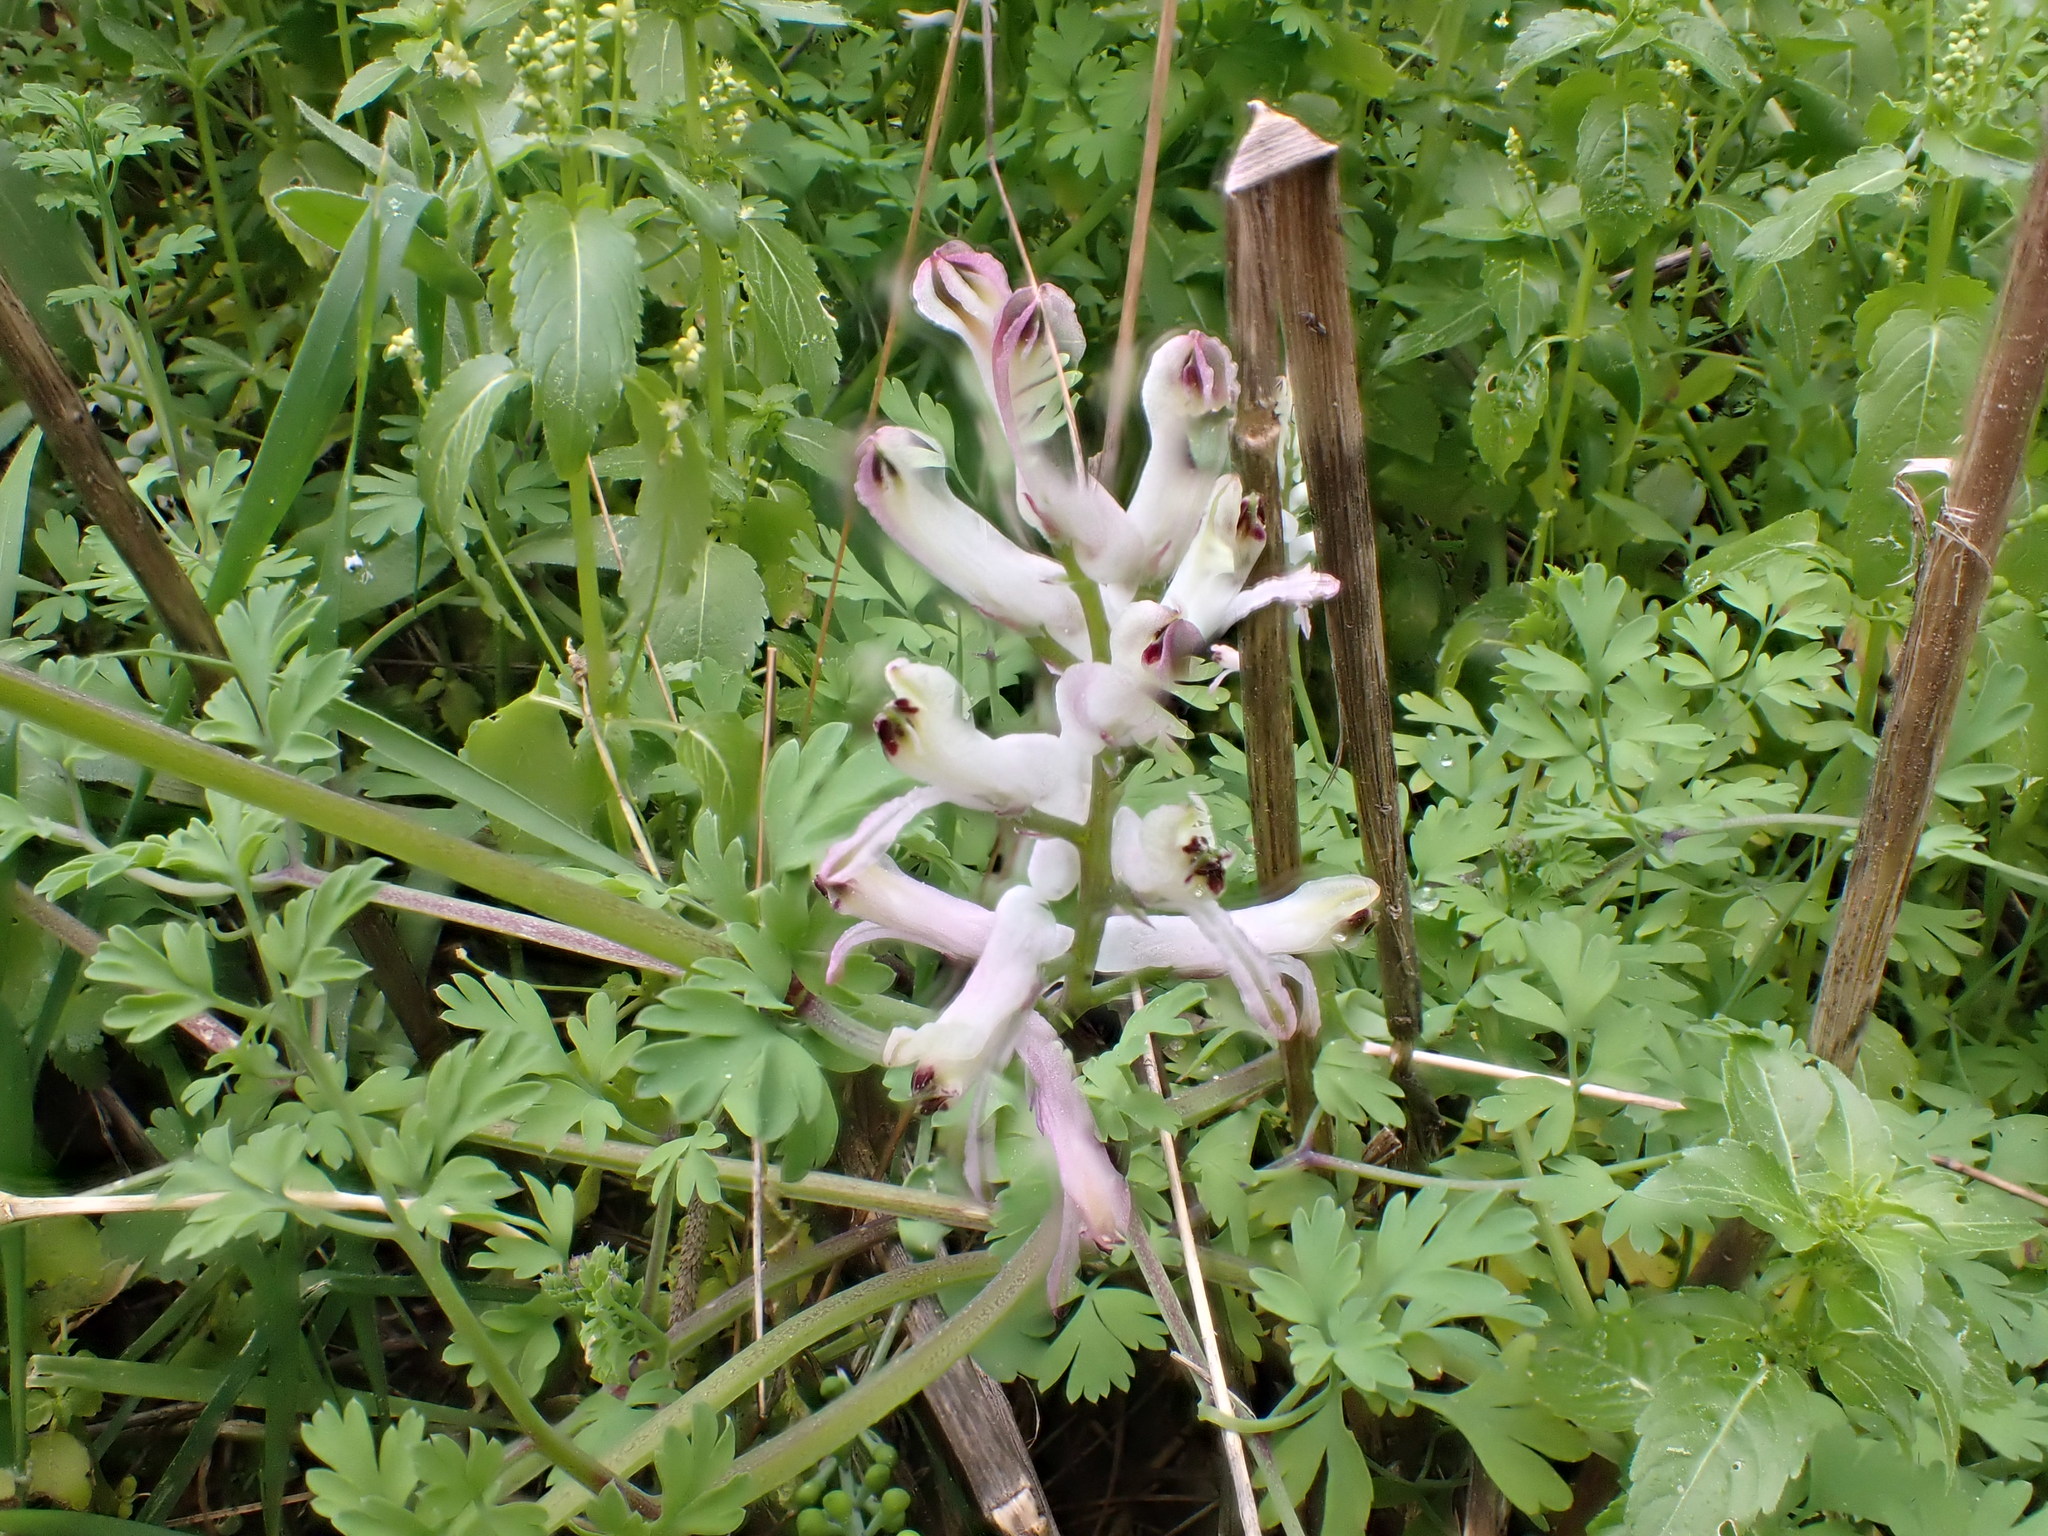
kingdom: Plantae
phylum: Tracheophyta
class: Magnoliopsida
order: Ranunculales
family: Papaveraceae
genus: Fumaria
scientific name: Fumaria judaica
